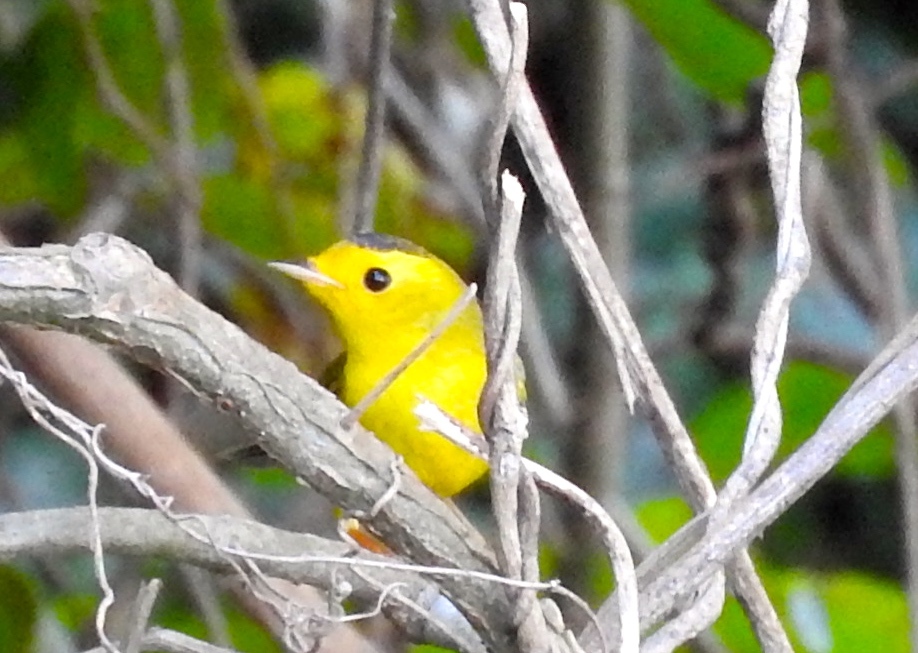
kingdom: Animalia
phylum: Chordata
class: Aves
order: Passeriformes
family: Parulidae
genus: Cardellina
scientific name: Cardellina pusilla
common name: Wilson's warbler
